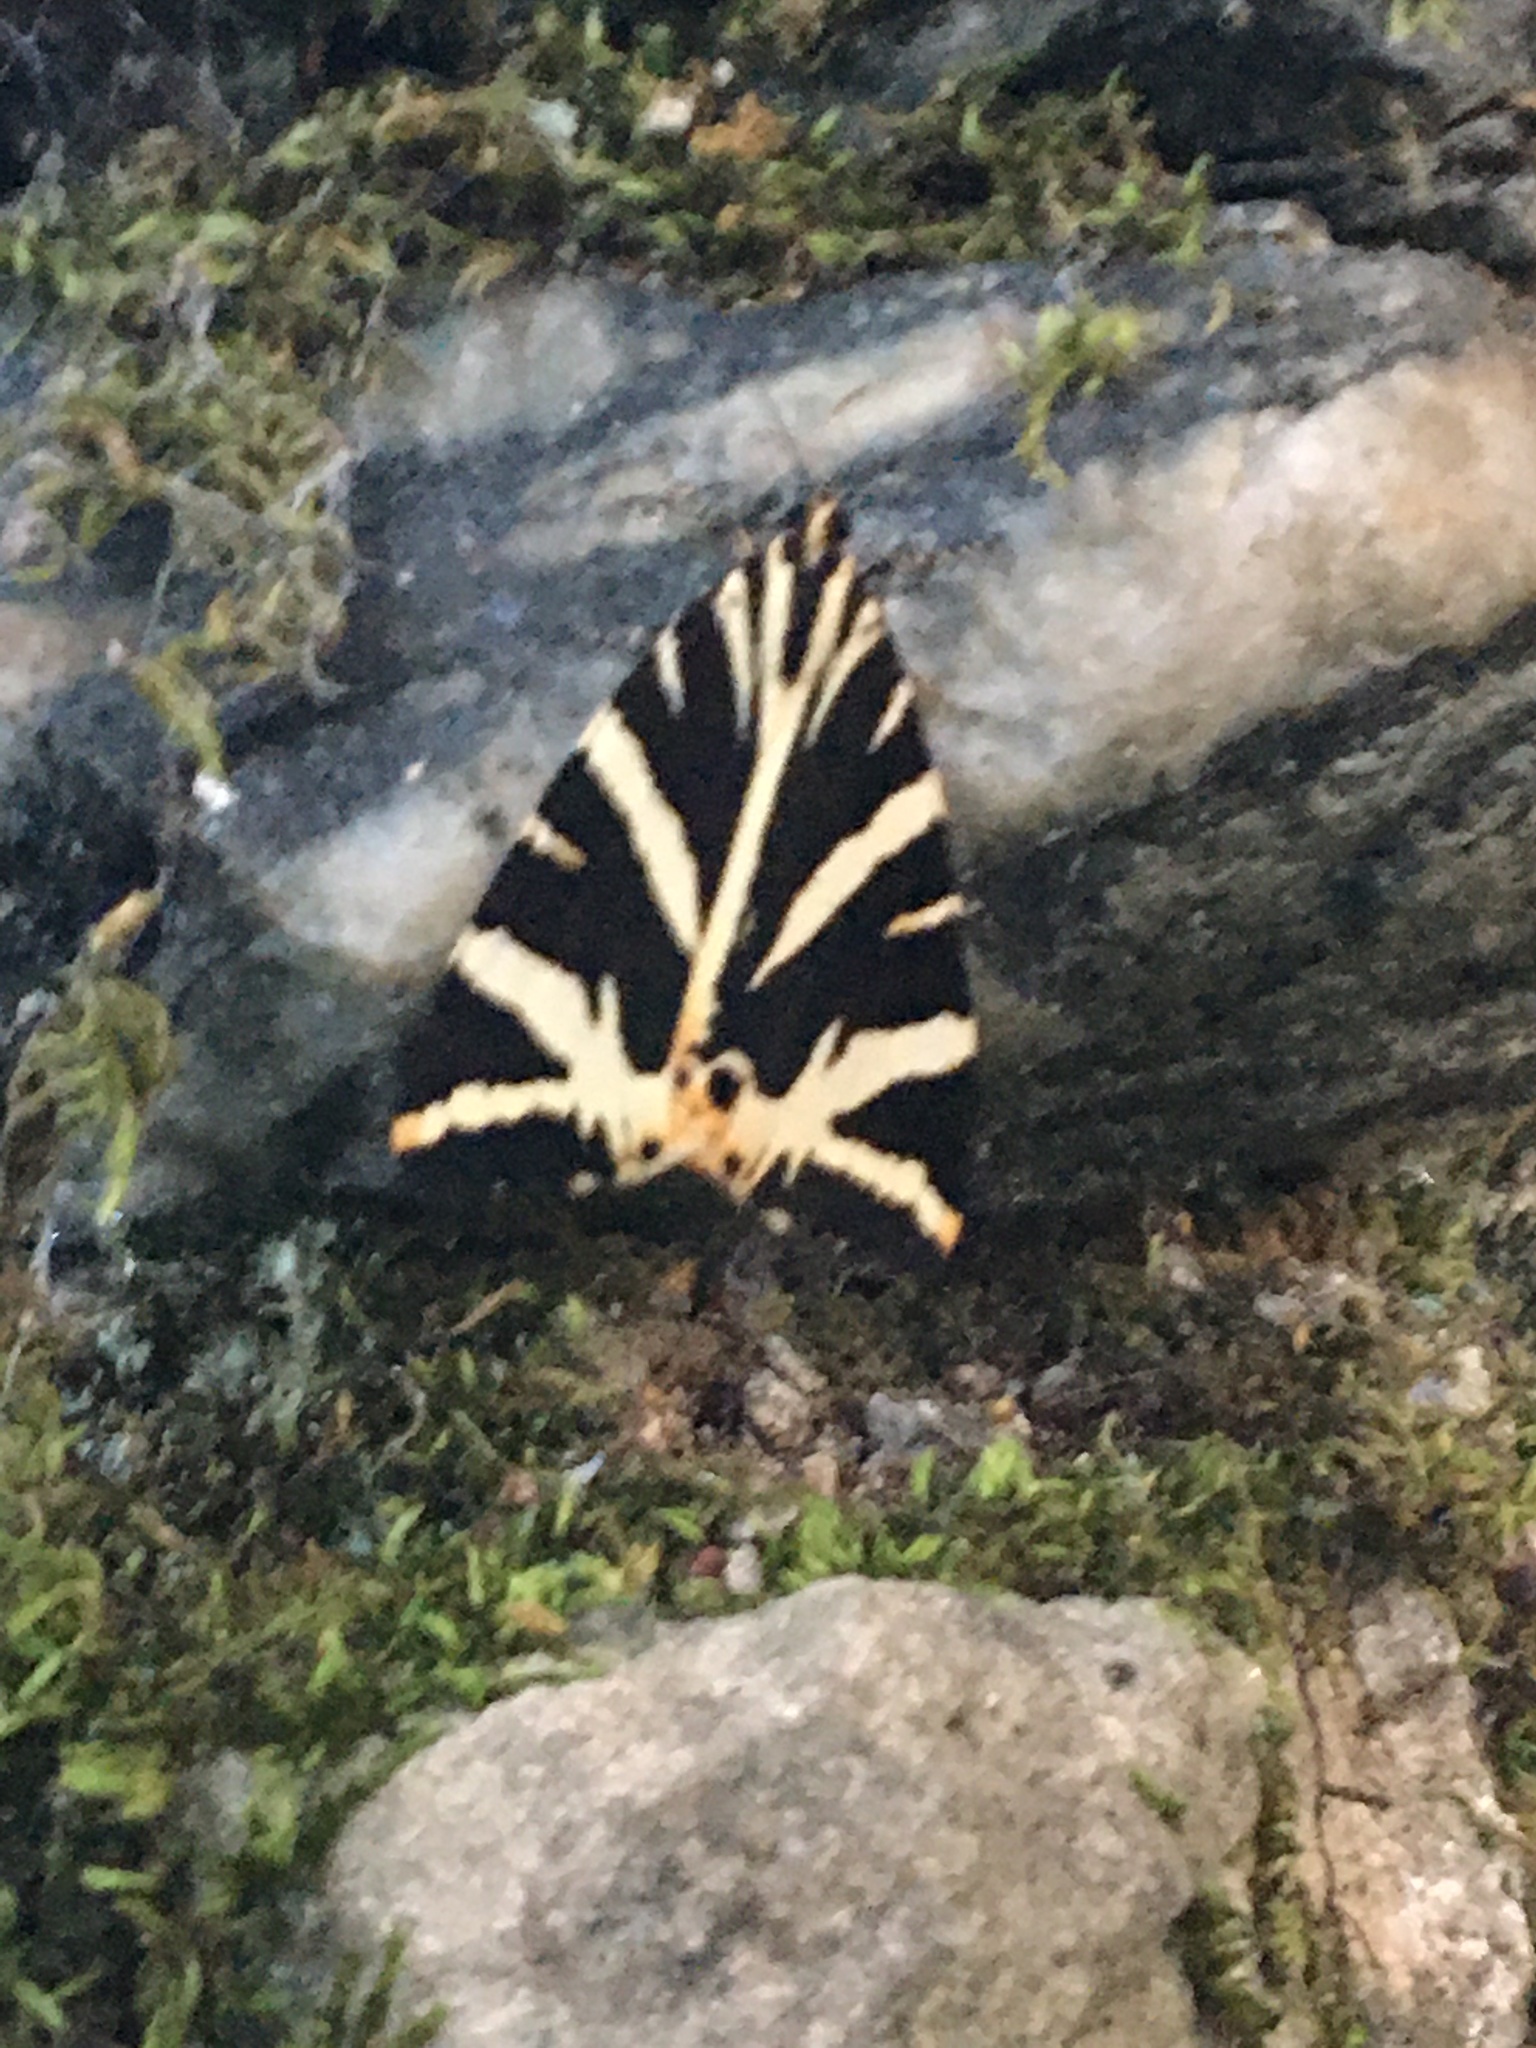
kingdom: Animalia
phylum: Arthropoda
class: Insecta
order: Lepidoptera
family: Erebidae
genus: Euplagia
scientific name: Euplagia quadripunctaria
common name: Jersey tiger
